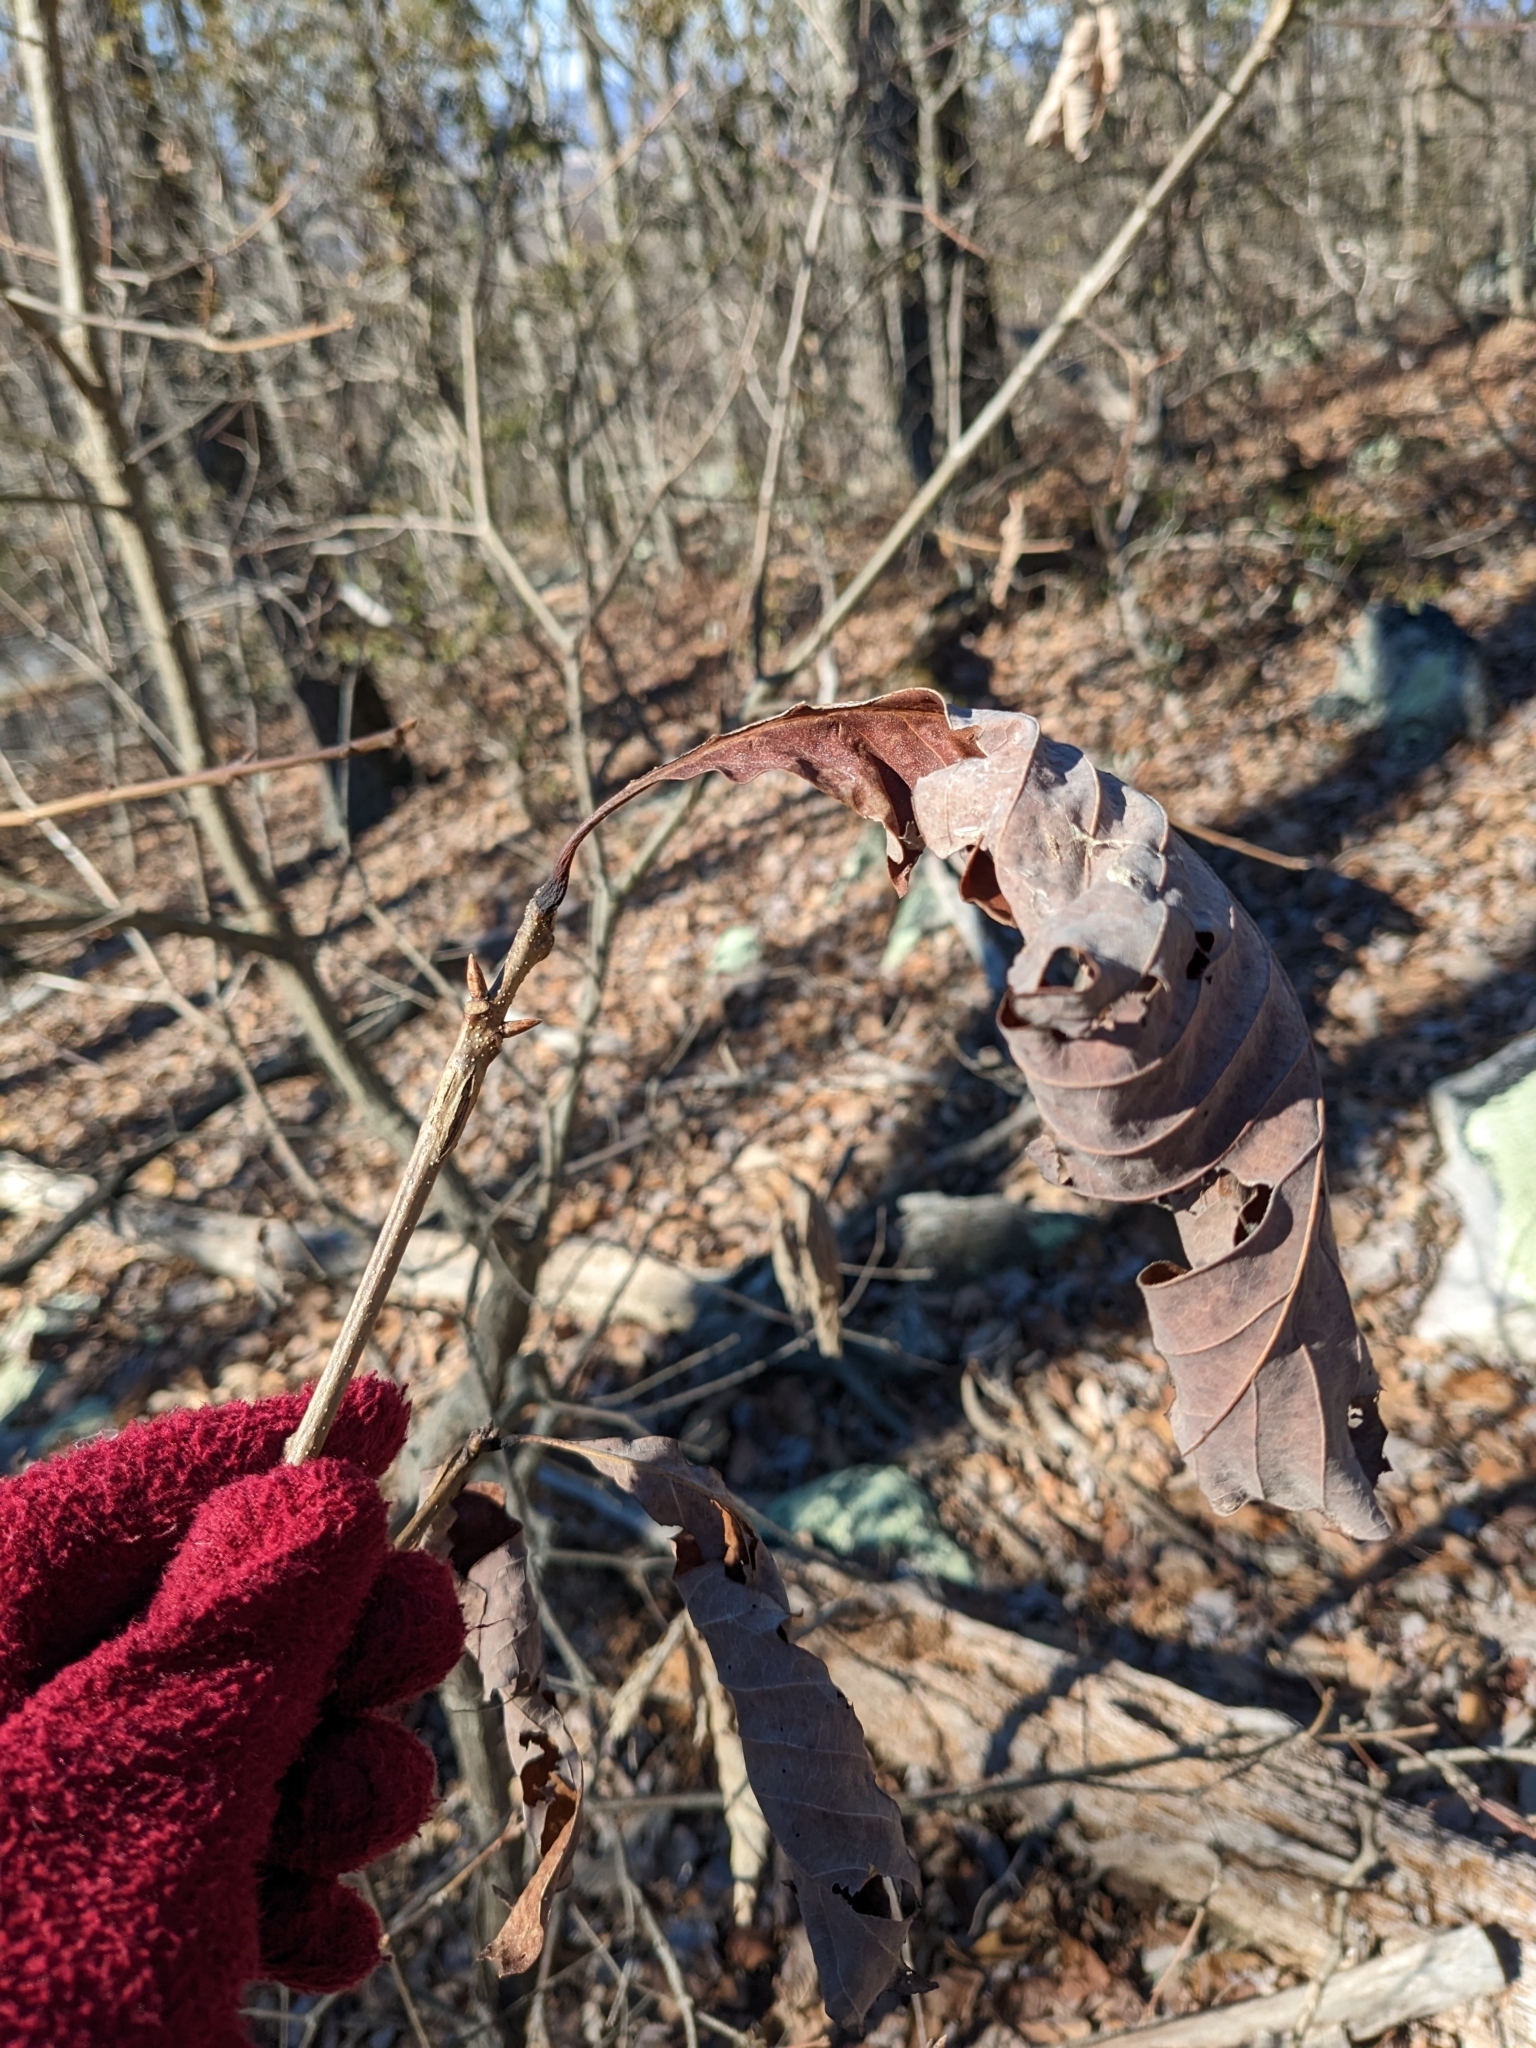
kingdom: Plantae
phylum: Tracheophyta
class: Magnoliopsida
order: Fagales
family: Fagaceae
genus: Quercus
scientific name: Quercus montana
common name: Chestnut oak
